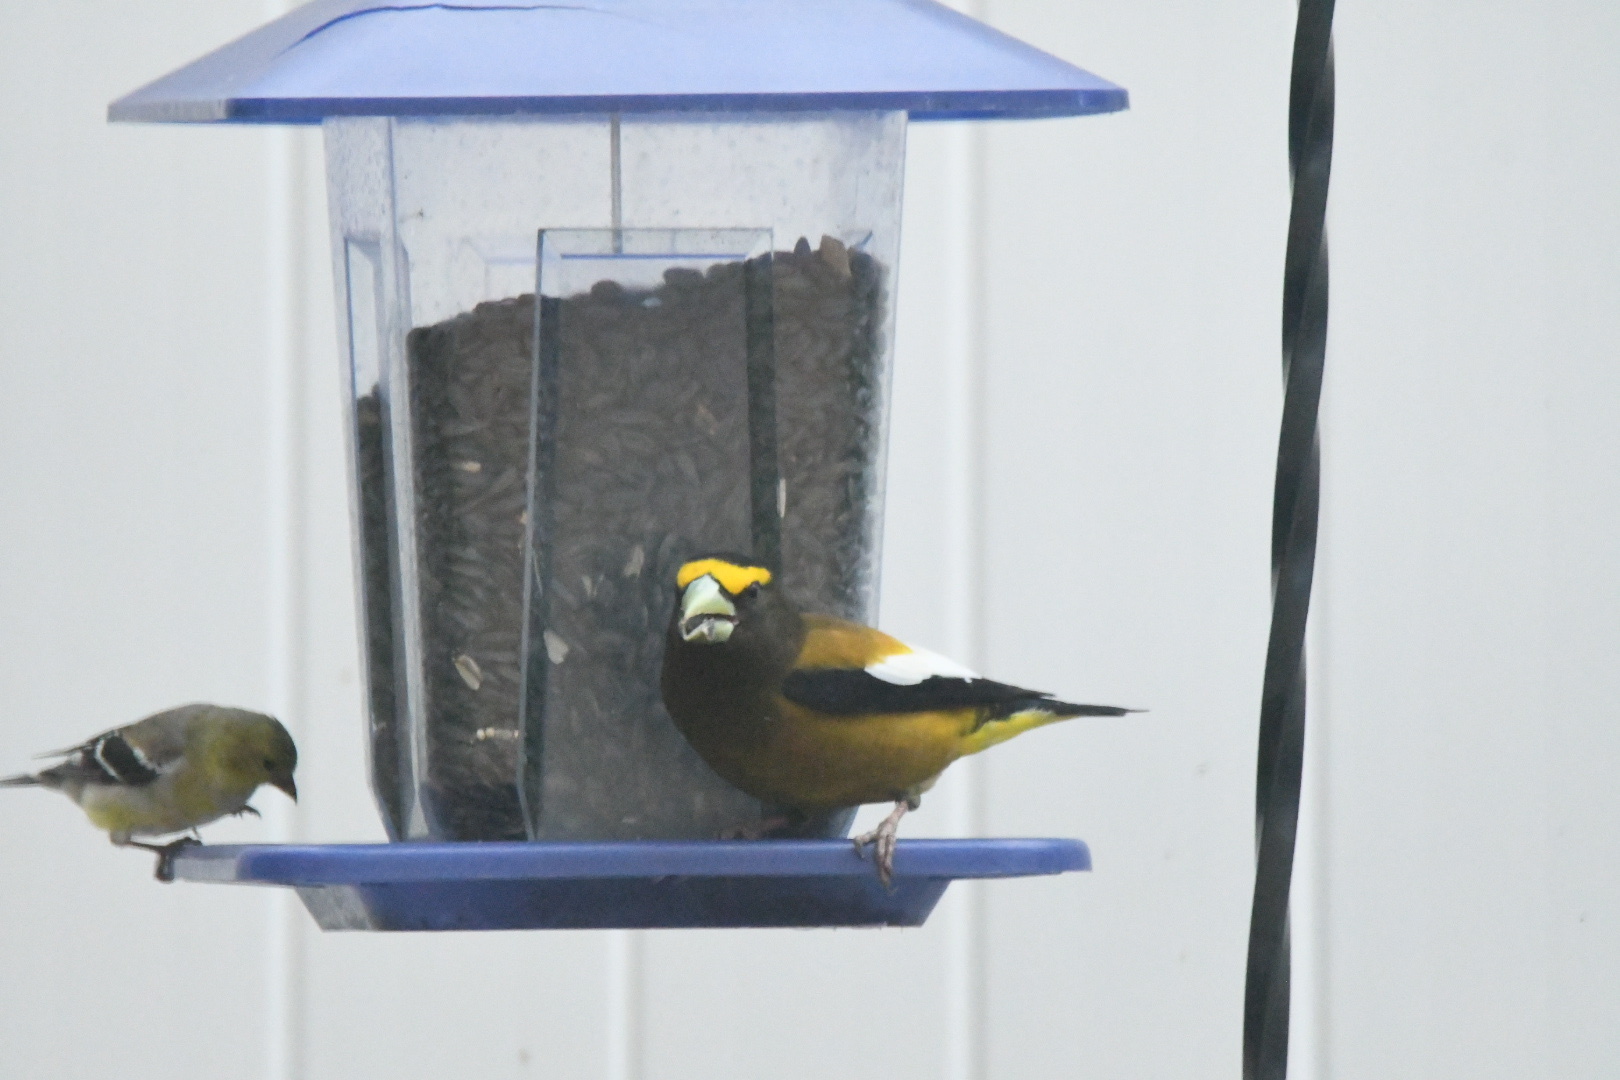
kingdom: Animalia
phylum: Chordata
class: Aves
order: Passeriformes
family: Fringillidae
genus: Hesperiphona
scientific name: Hesperiphona vespertina
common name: Evening grosbeak
